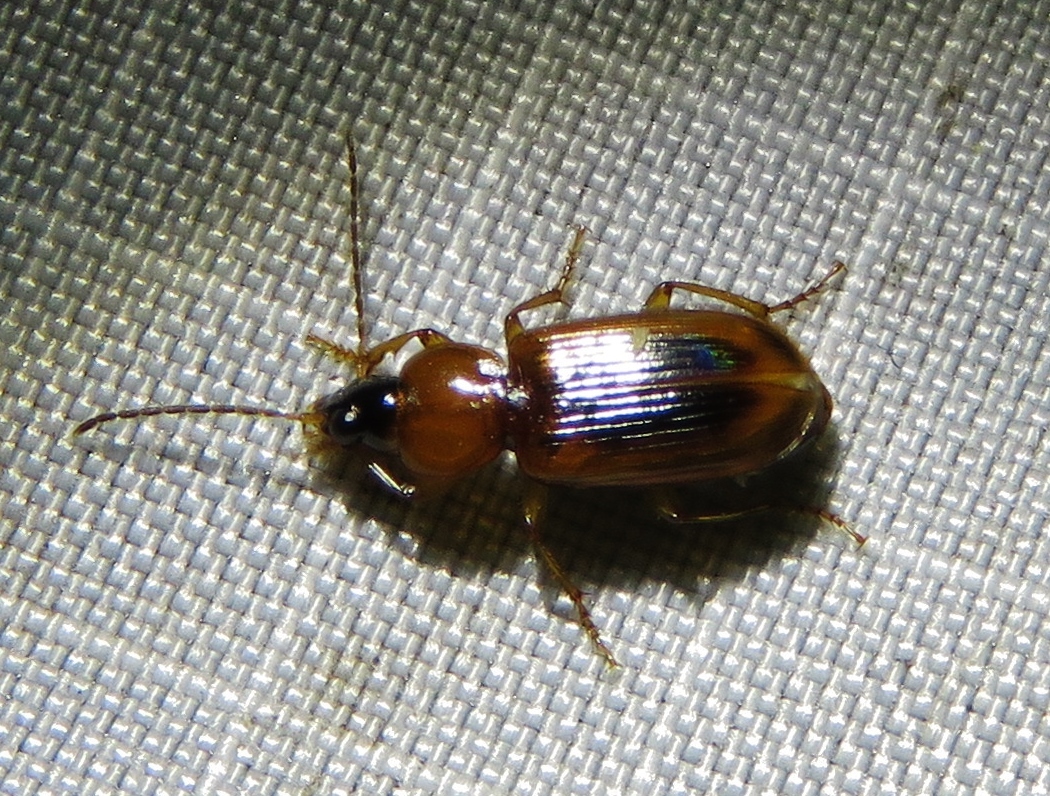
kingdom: Animalia
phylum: Arthropoda
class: Insecta
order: Coleoptera
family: Carabidae
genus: Stenolophus
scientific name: Stenolophus lecontei
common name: Leconte's seedcorn beetle
